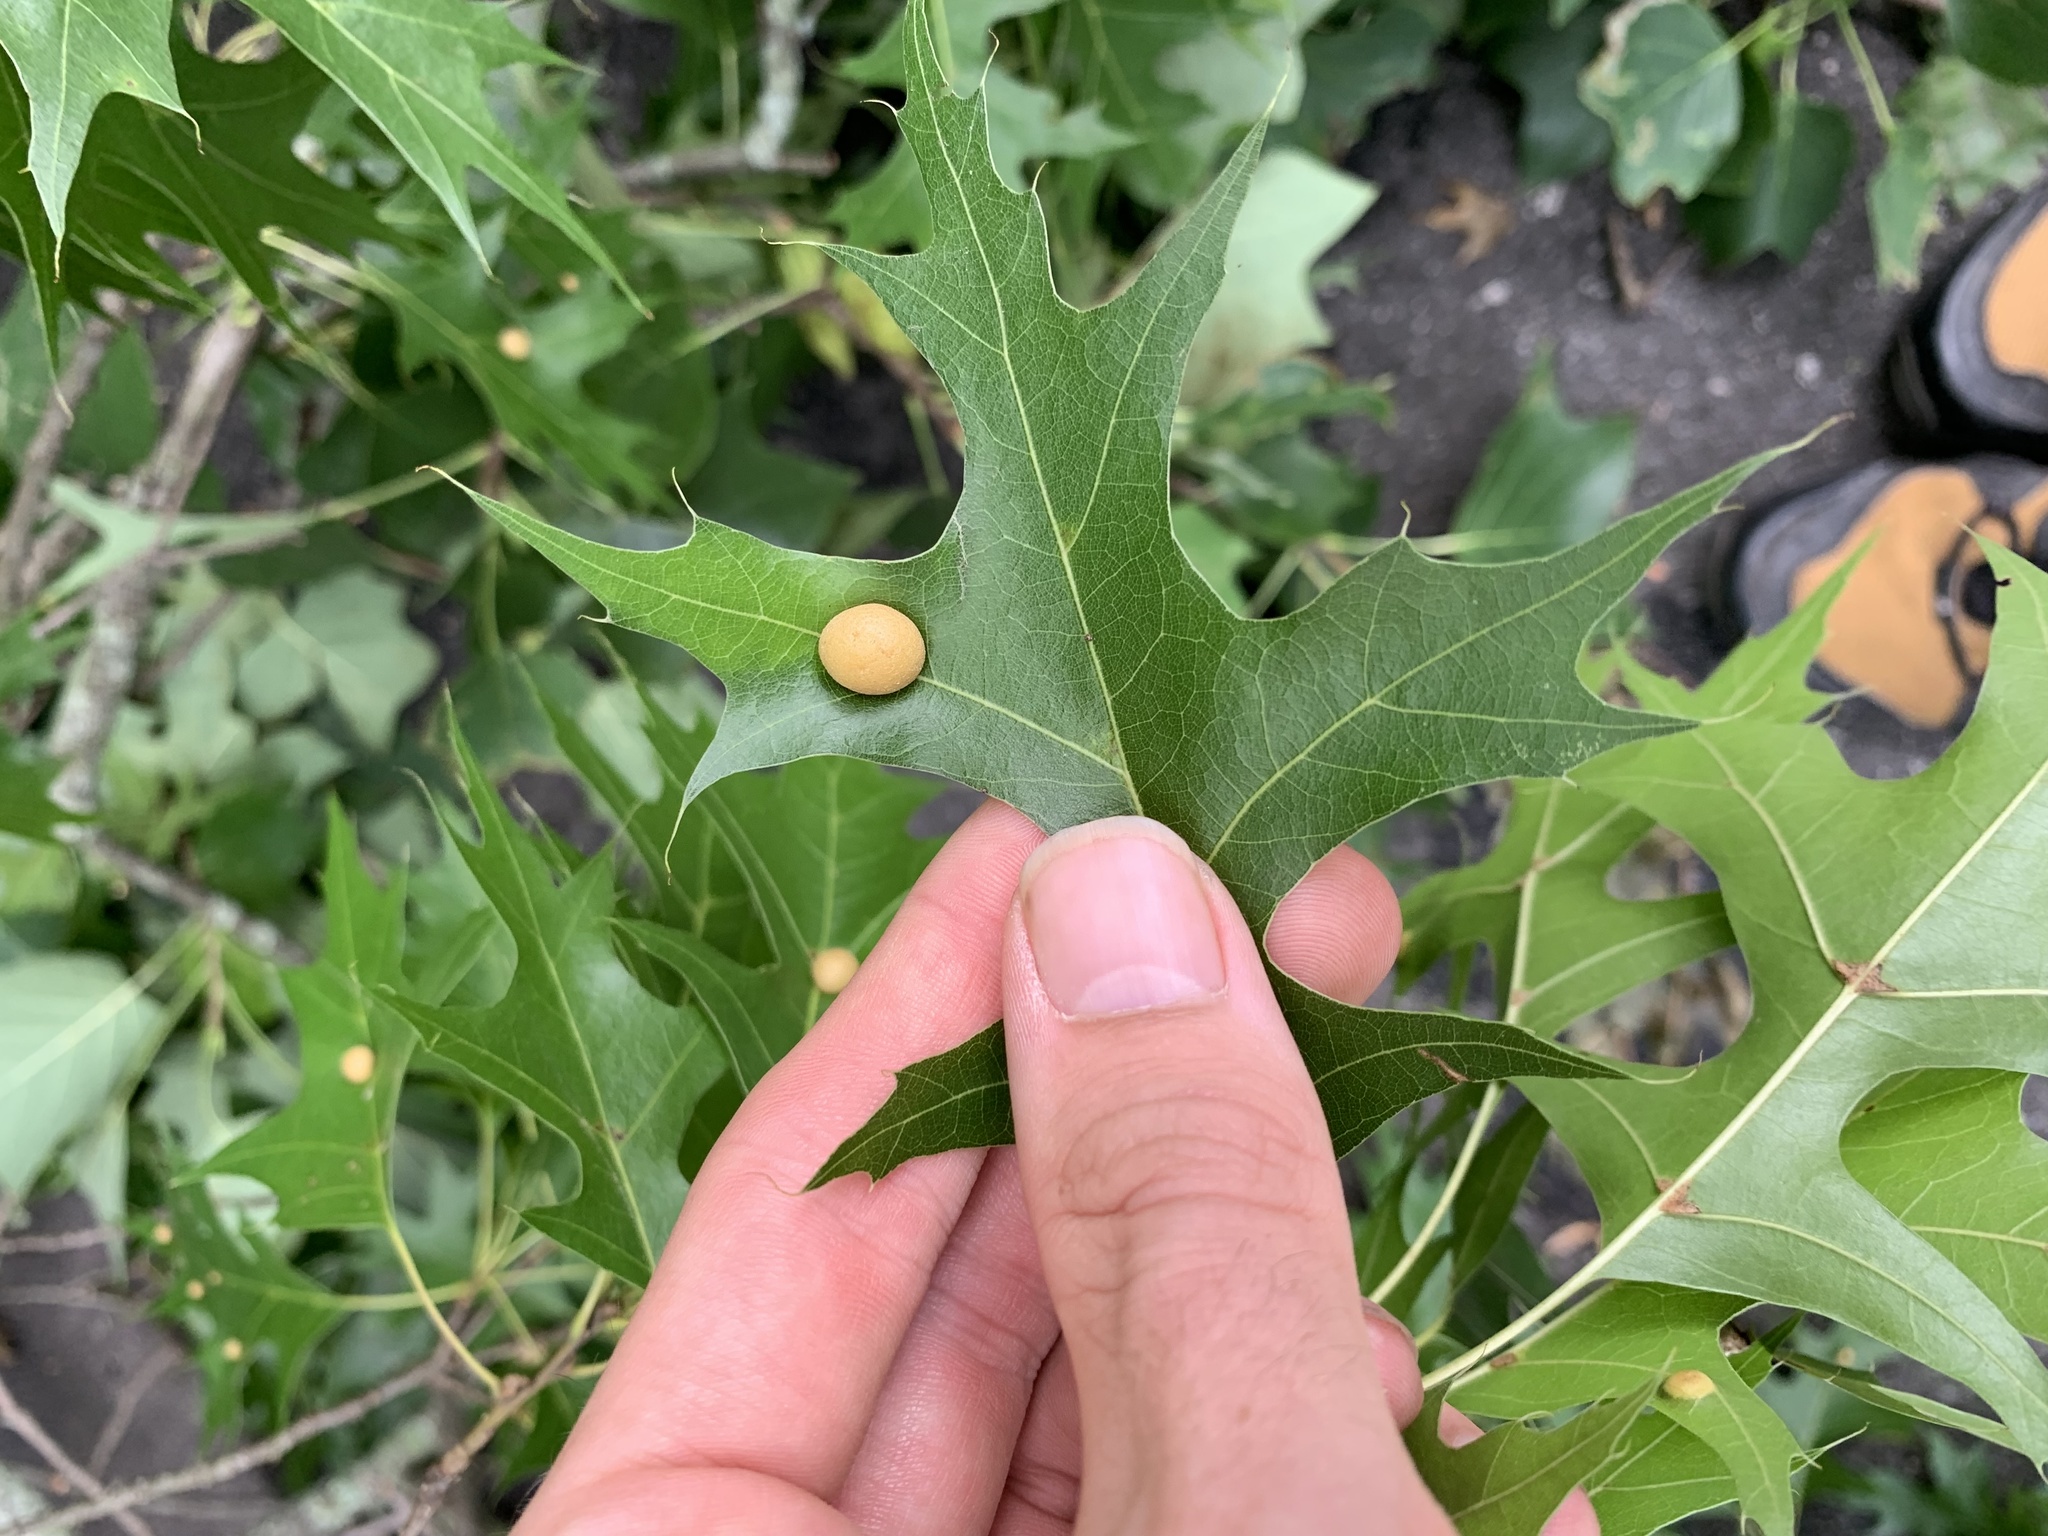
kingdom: Animalia
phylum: Arthropoda
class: Insecta
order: Diptera
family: Cecidomyiidae
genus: Polystepha
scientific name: Polystepha pilulae
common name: Oak leaf gall midge
